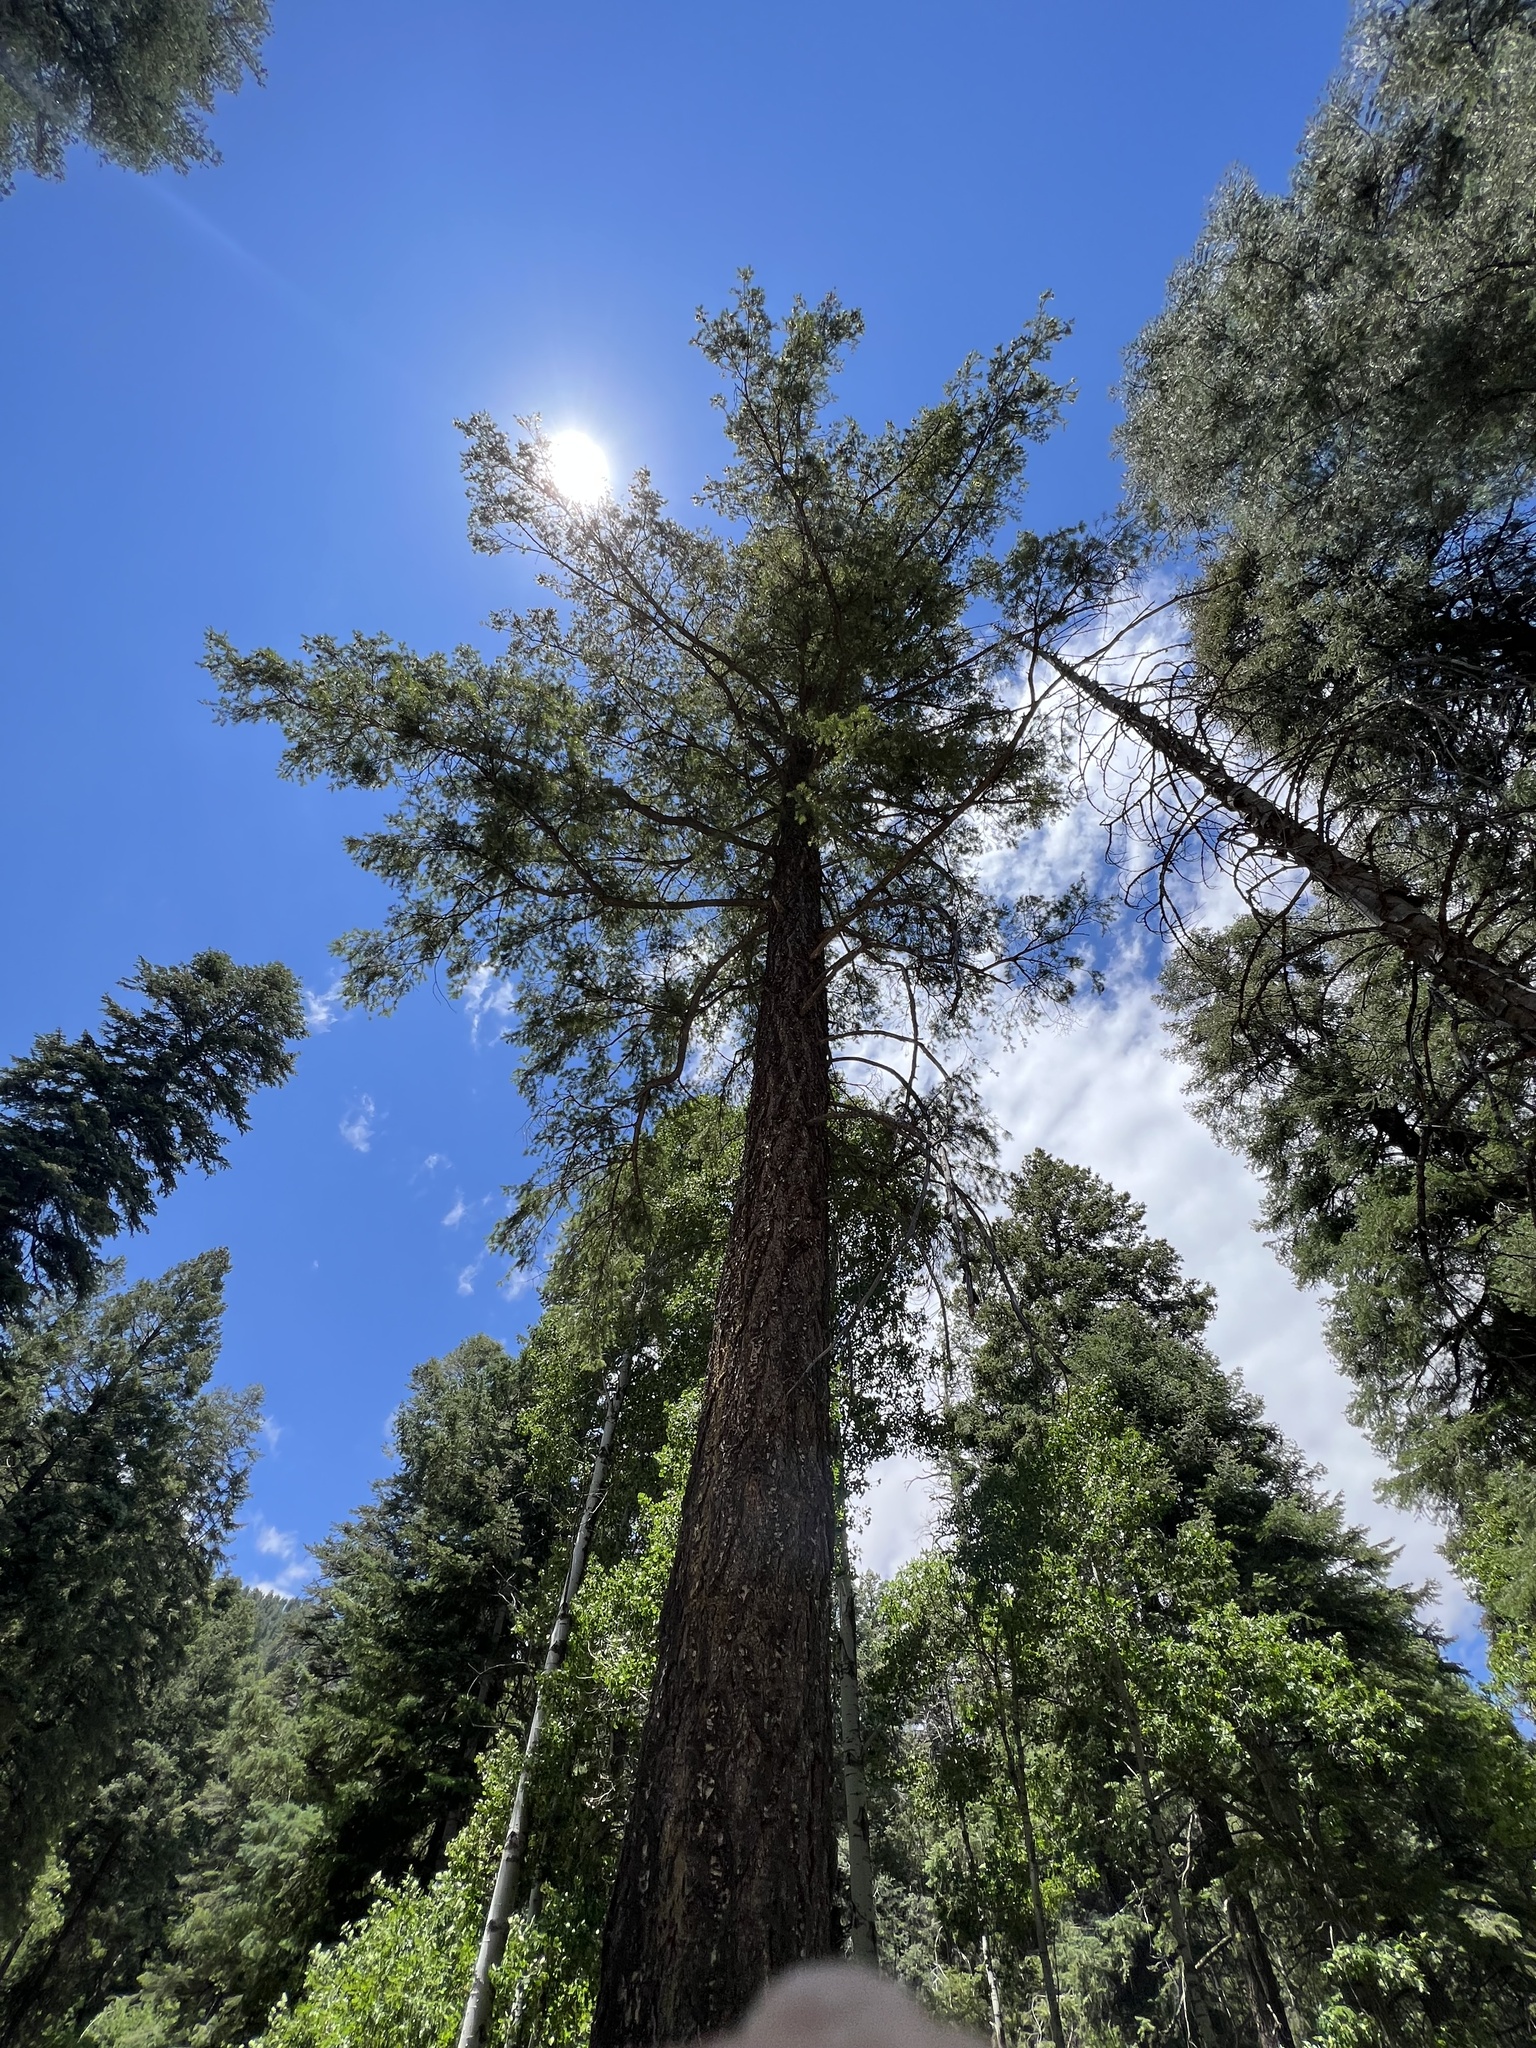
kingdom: Plantae
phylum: Tracheophyta
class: Pinopsida
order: Pinales
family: Pinaceae
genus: Pseudotsuga
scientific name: Pseudotsuga menziesii
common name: Douglas fir
